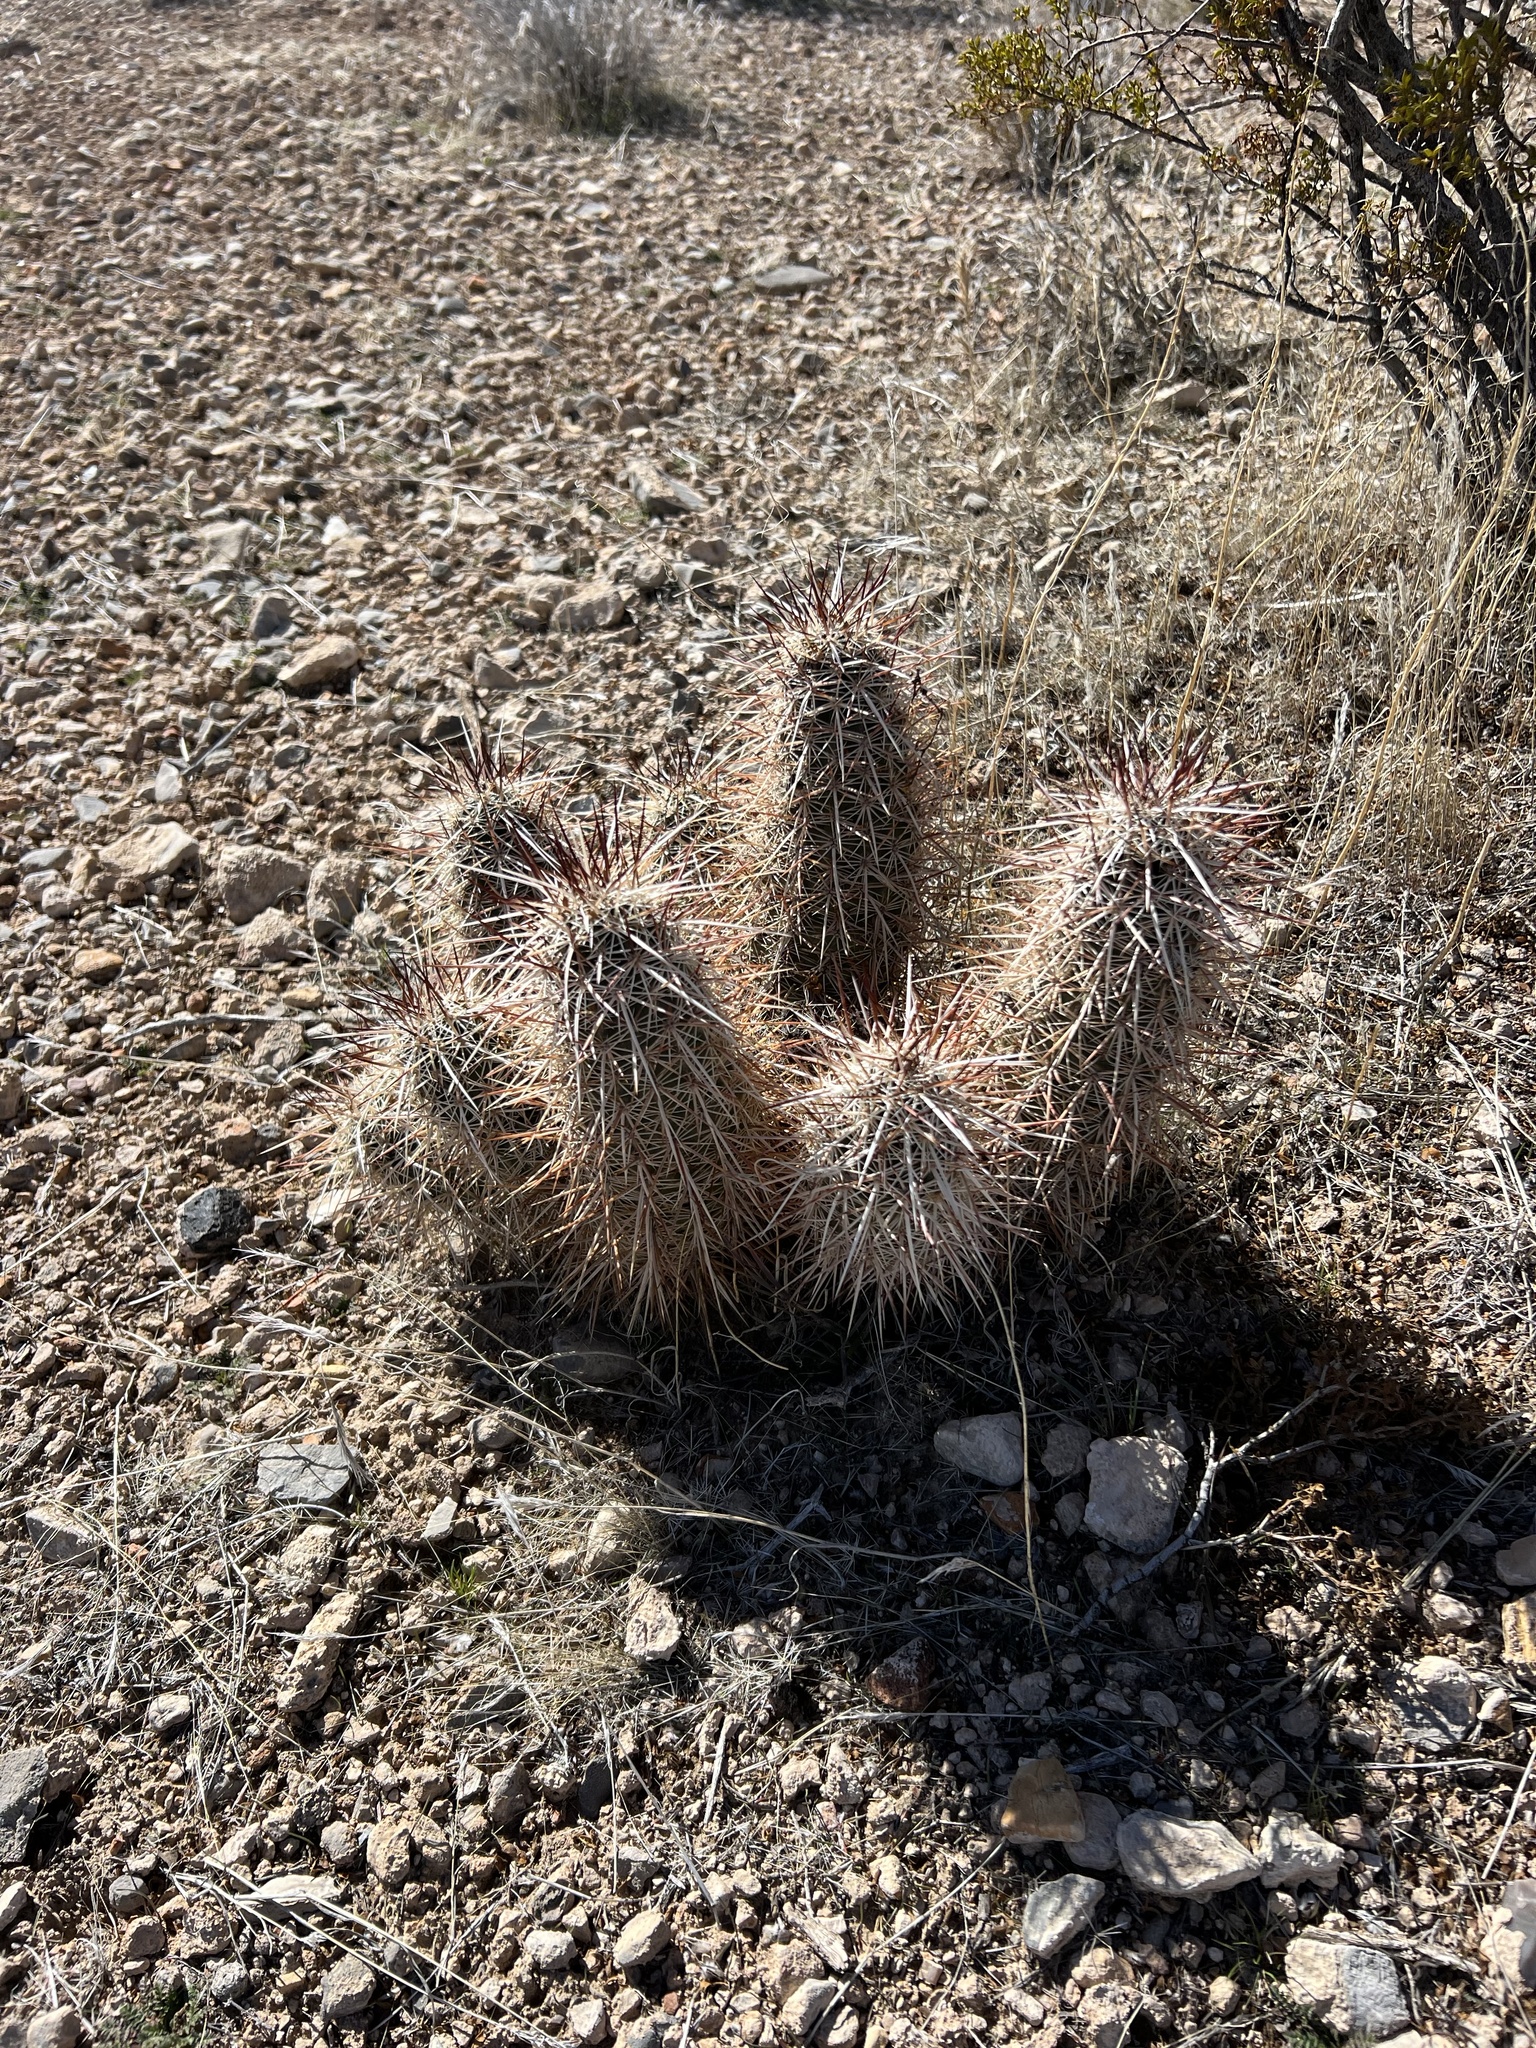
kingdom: Plantae
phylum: Tracheophyta
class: Magnoliopsida
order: Caryophyllales
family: Cactaceae
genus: Echinocereus
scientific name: Echinocereus engelmannii
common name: Engelmann's hedgehog cactus
